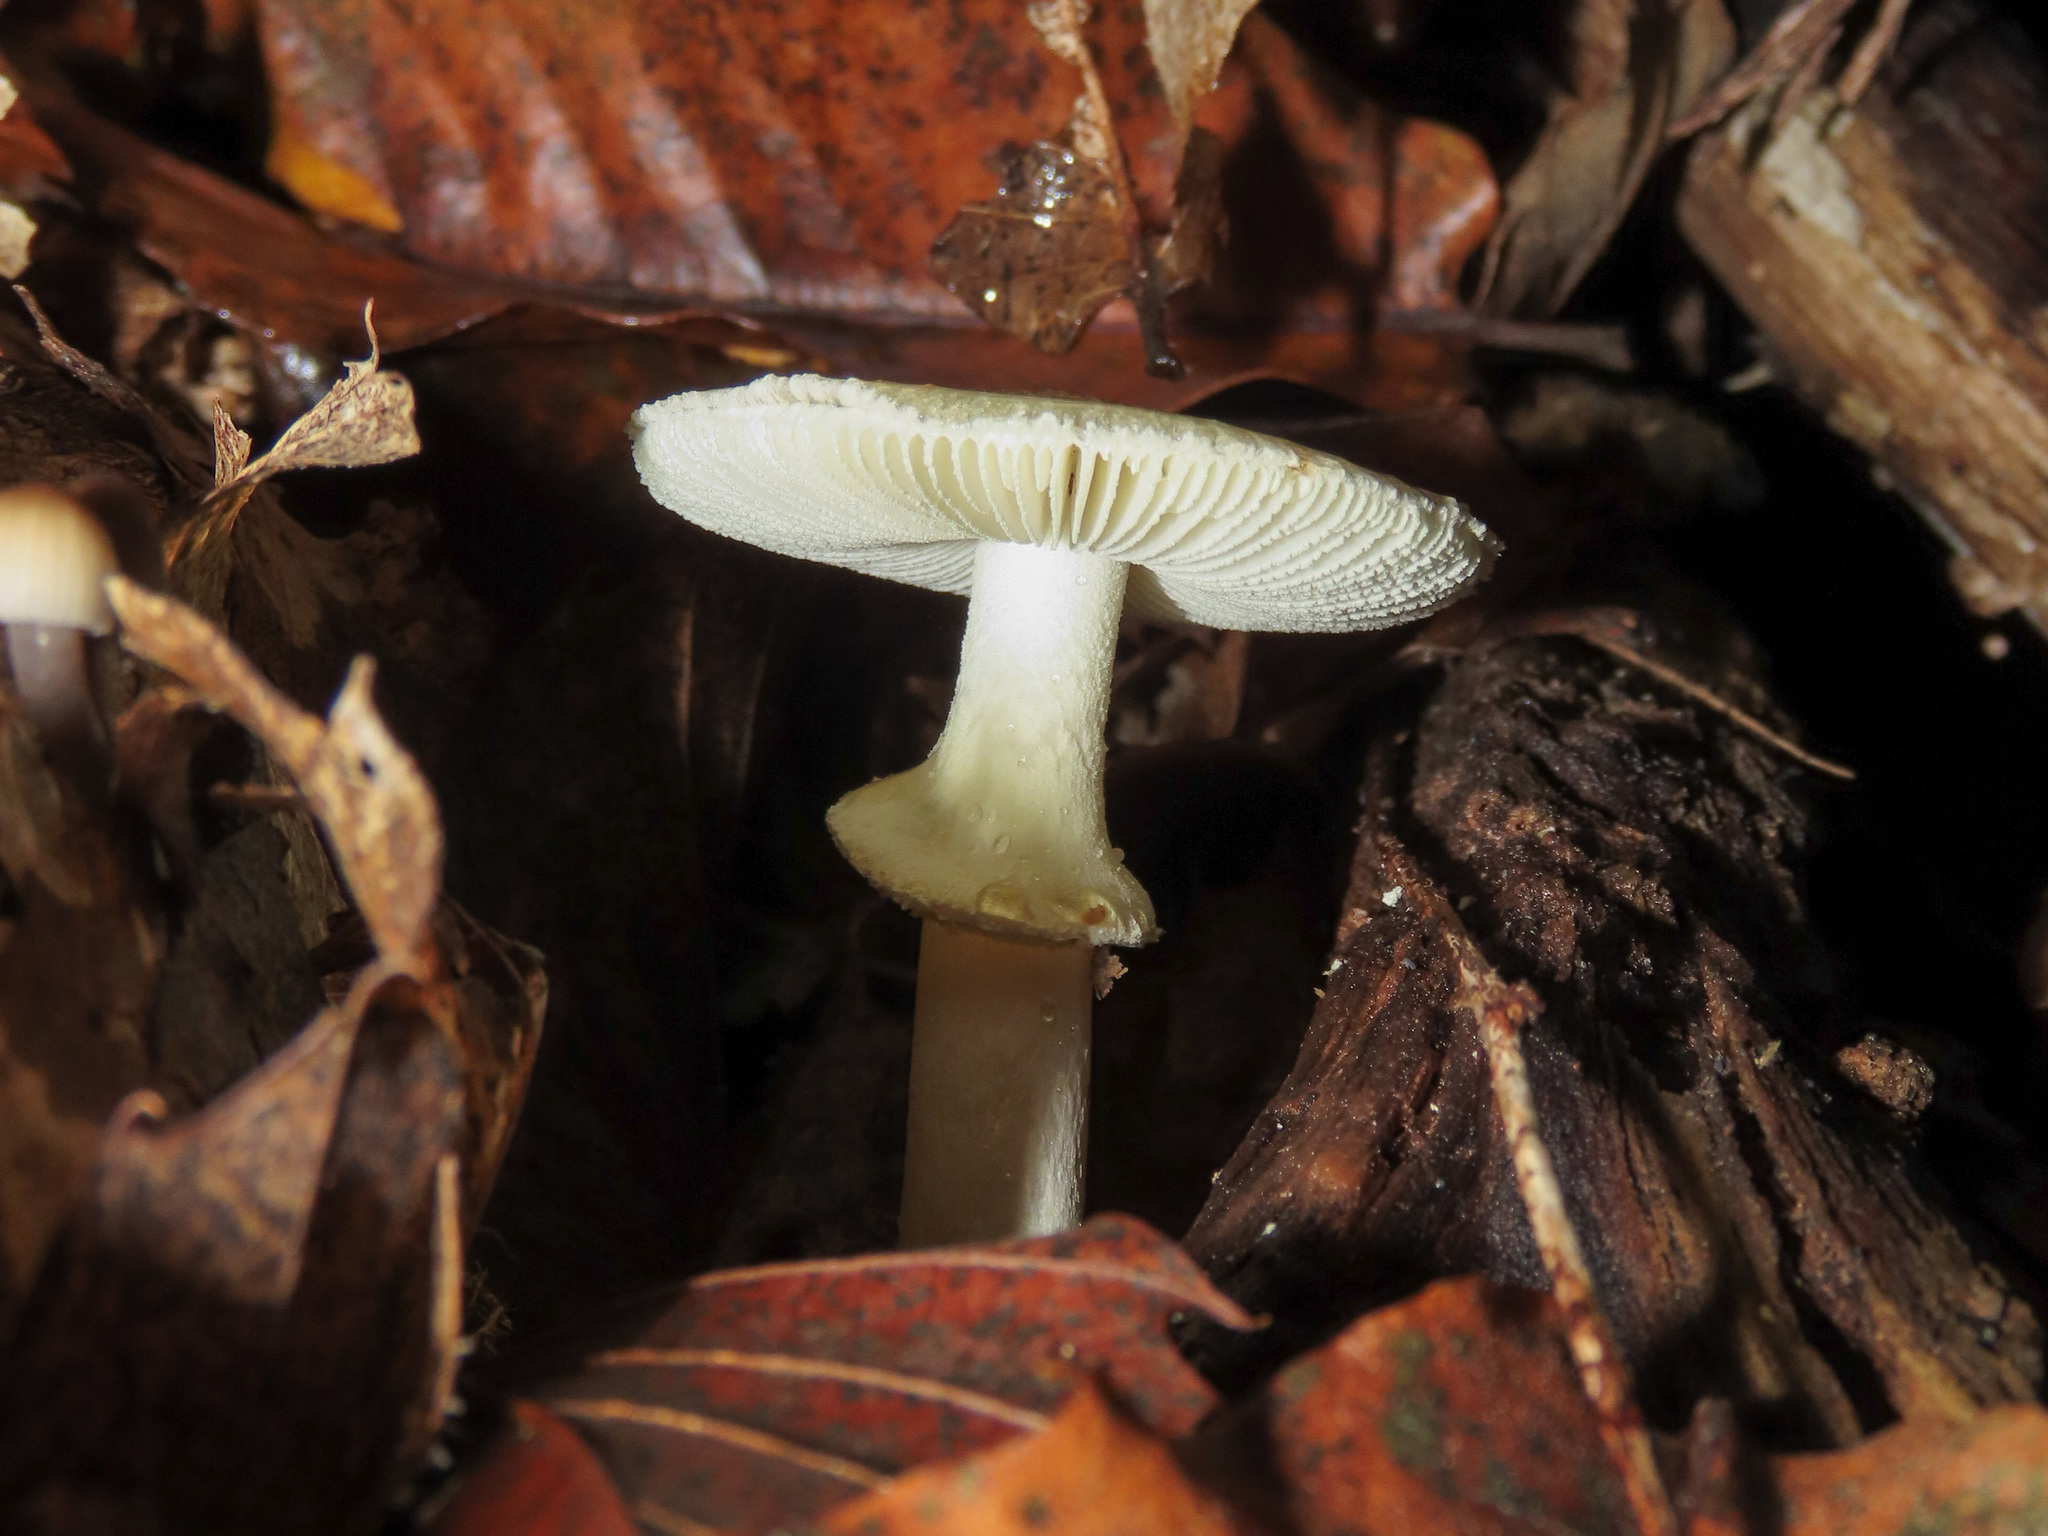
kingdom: Fungi
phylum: Basidiomycota
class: Agaricomycetes
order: Agaricales
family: Amanitaceae
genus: Amanita
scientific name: Amanita citrina
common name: False death-cap
